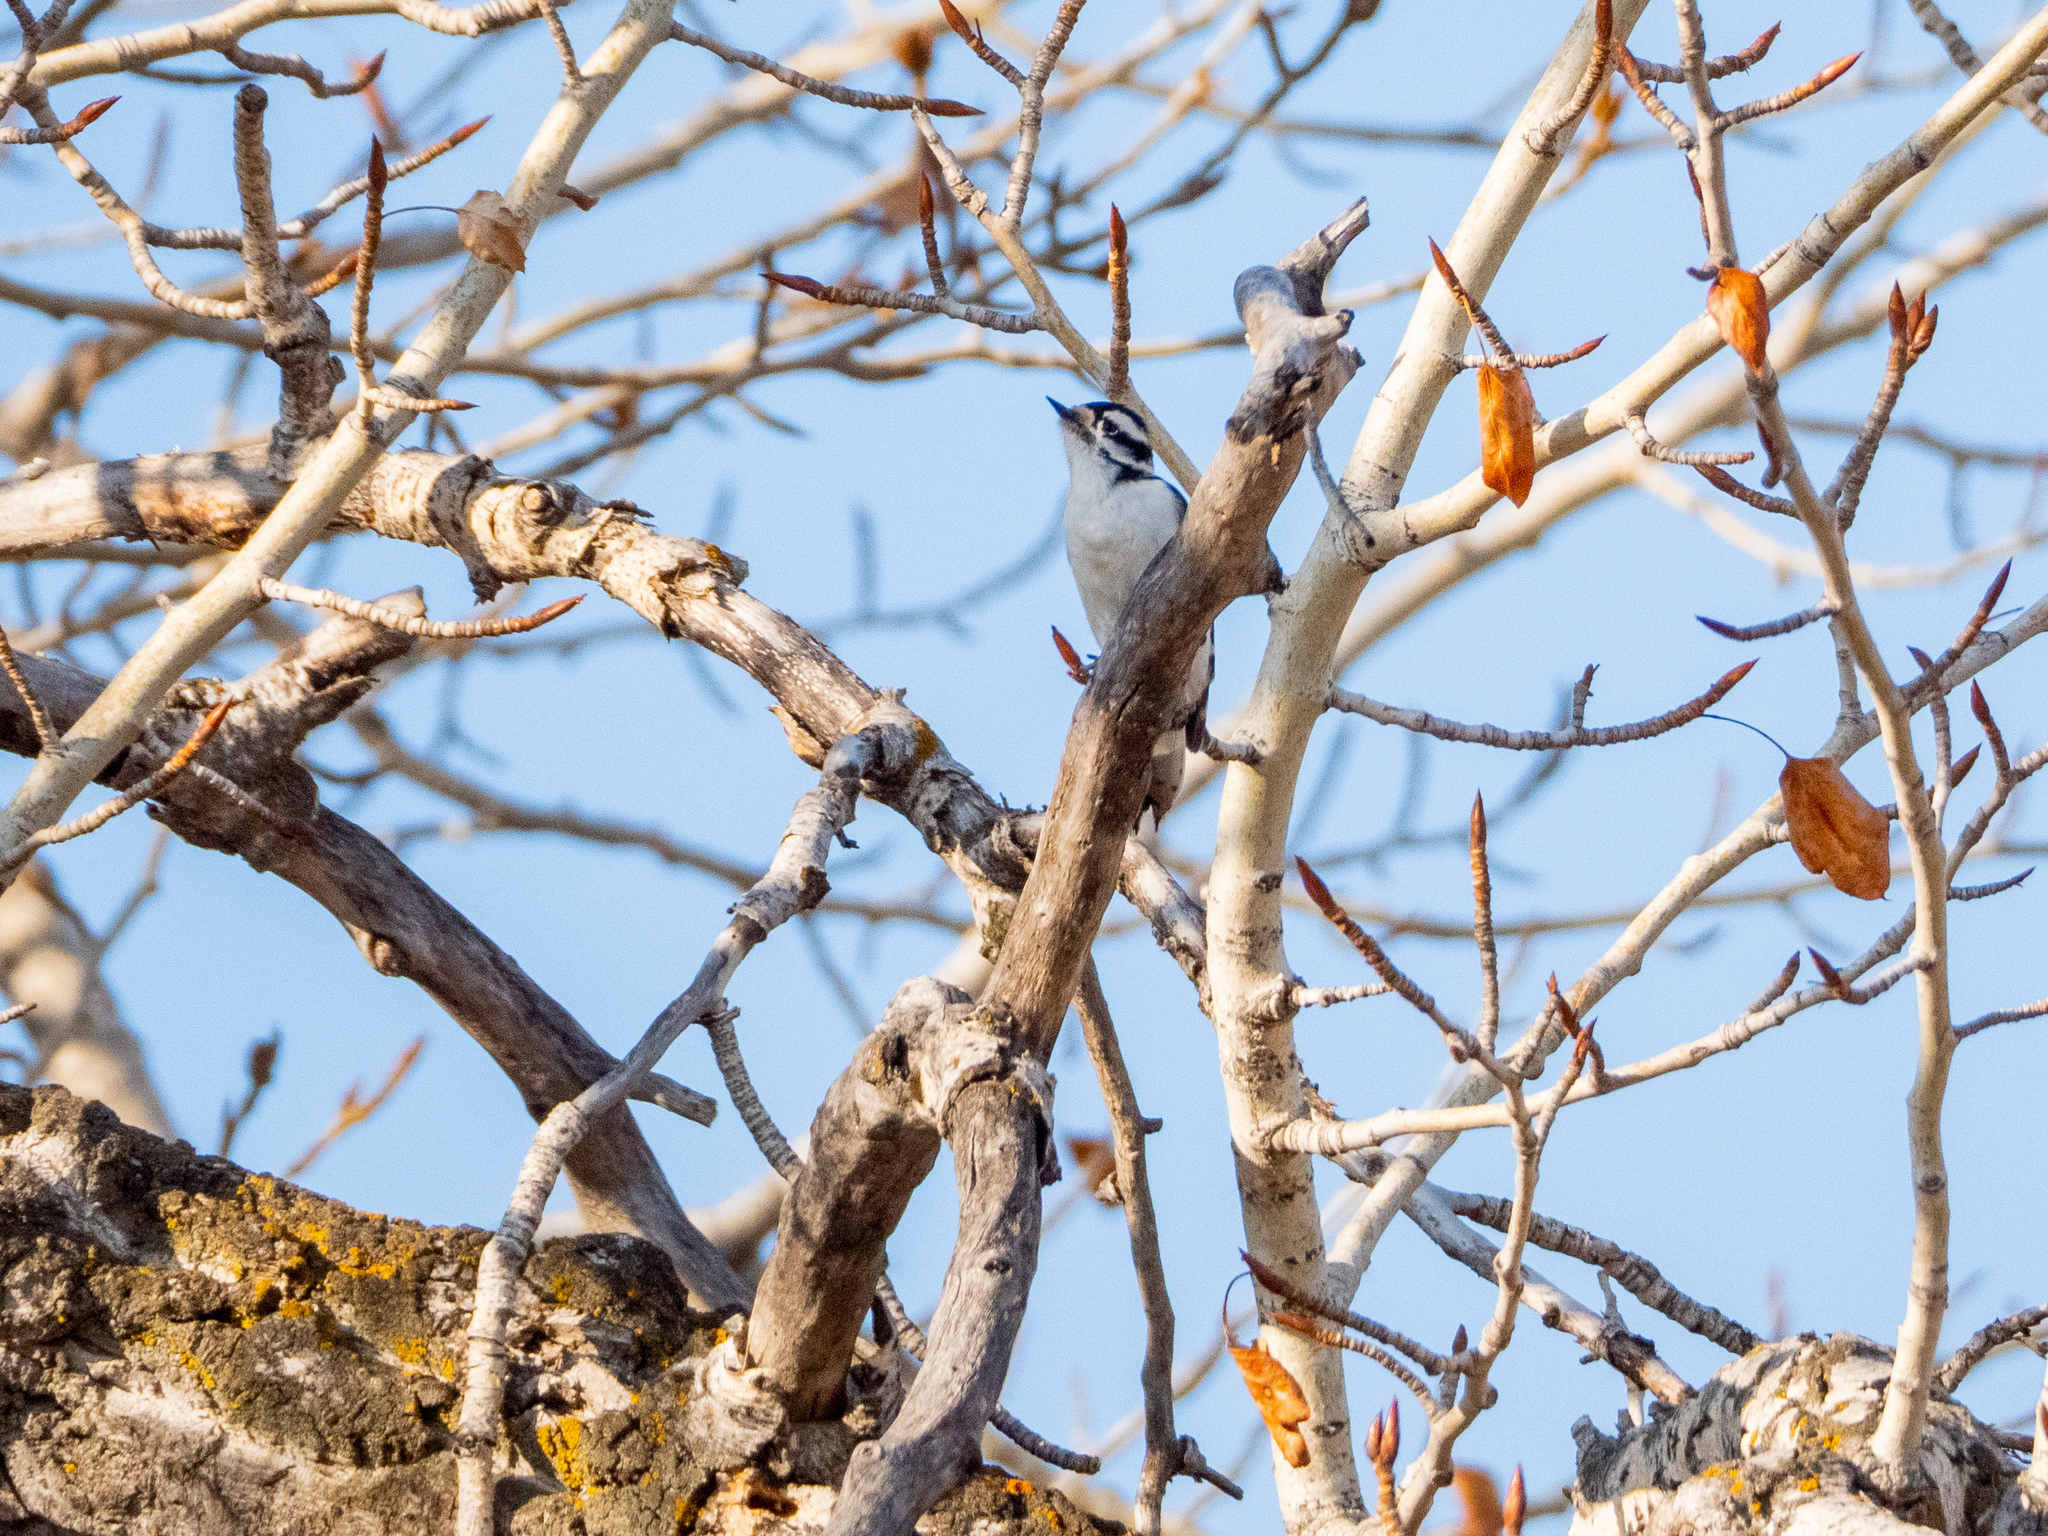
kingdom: Animalia
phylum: Chordata
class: Aves
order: Piciformes
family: Picidae
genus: Dryobates
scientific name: Dryobates pubescens
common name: Downy woodpecker
